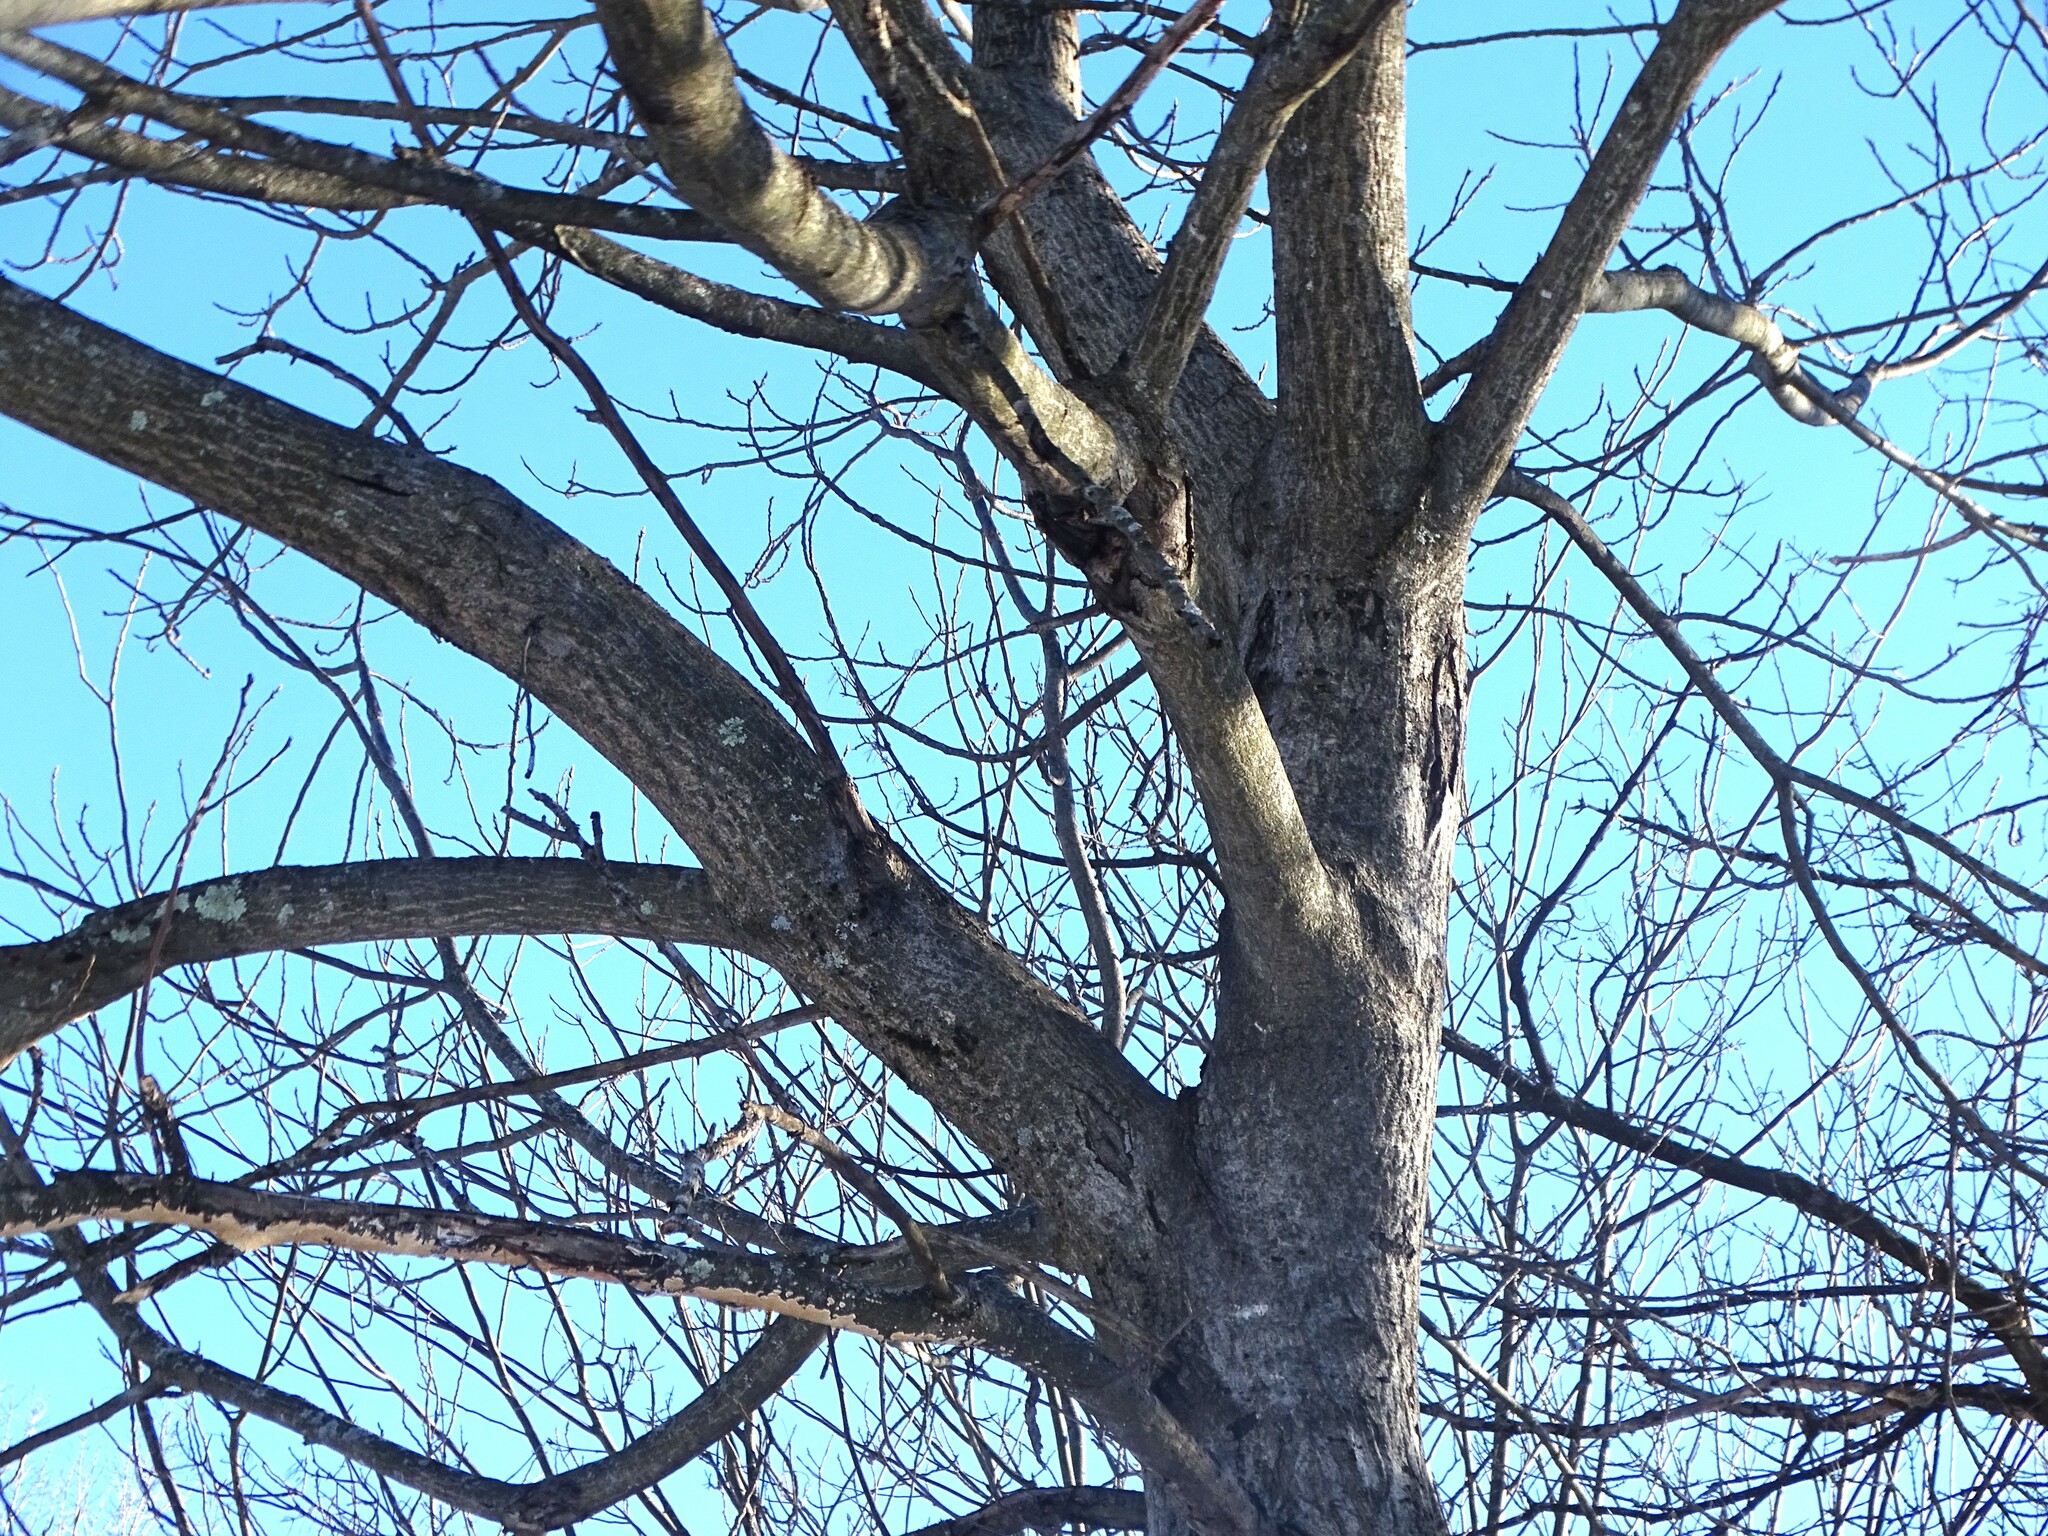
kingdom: Plantae
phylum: Tracheophyta
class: Magnoliopsida
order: Fagales
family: Juglandaceae
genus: Juglans
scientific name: Juglans cinerea
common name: Butternut
